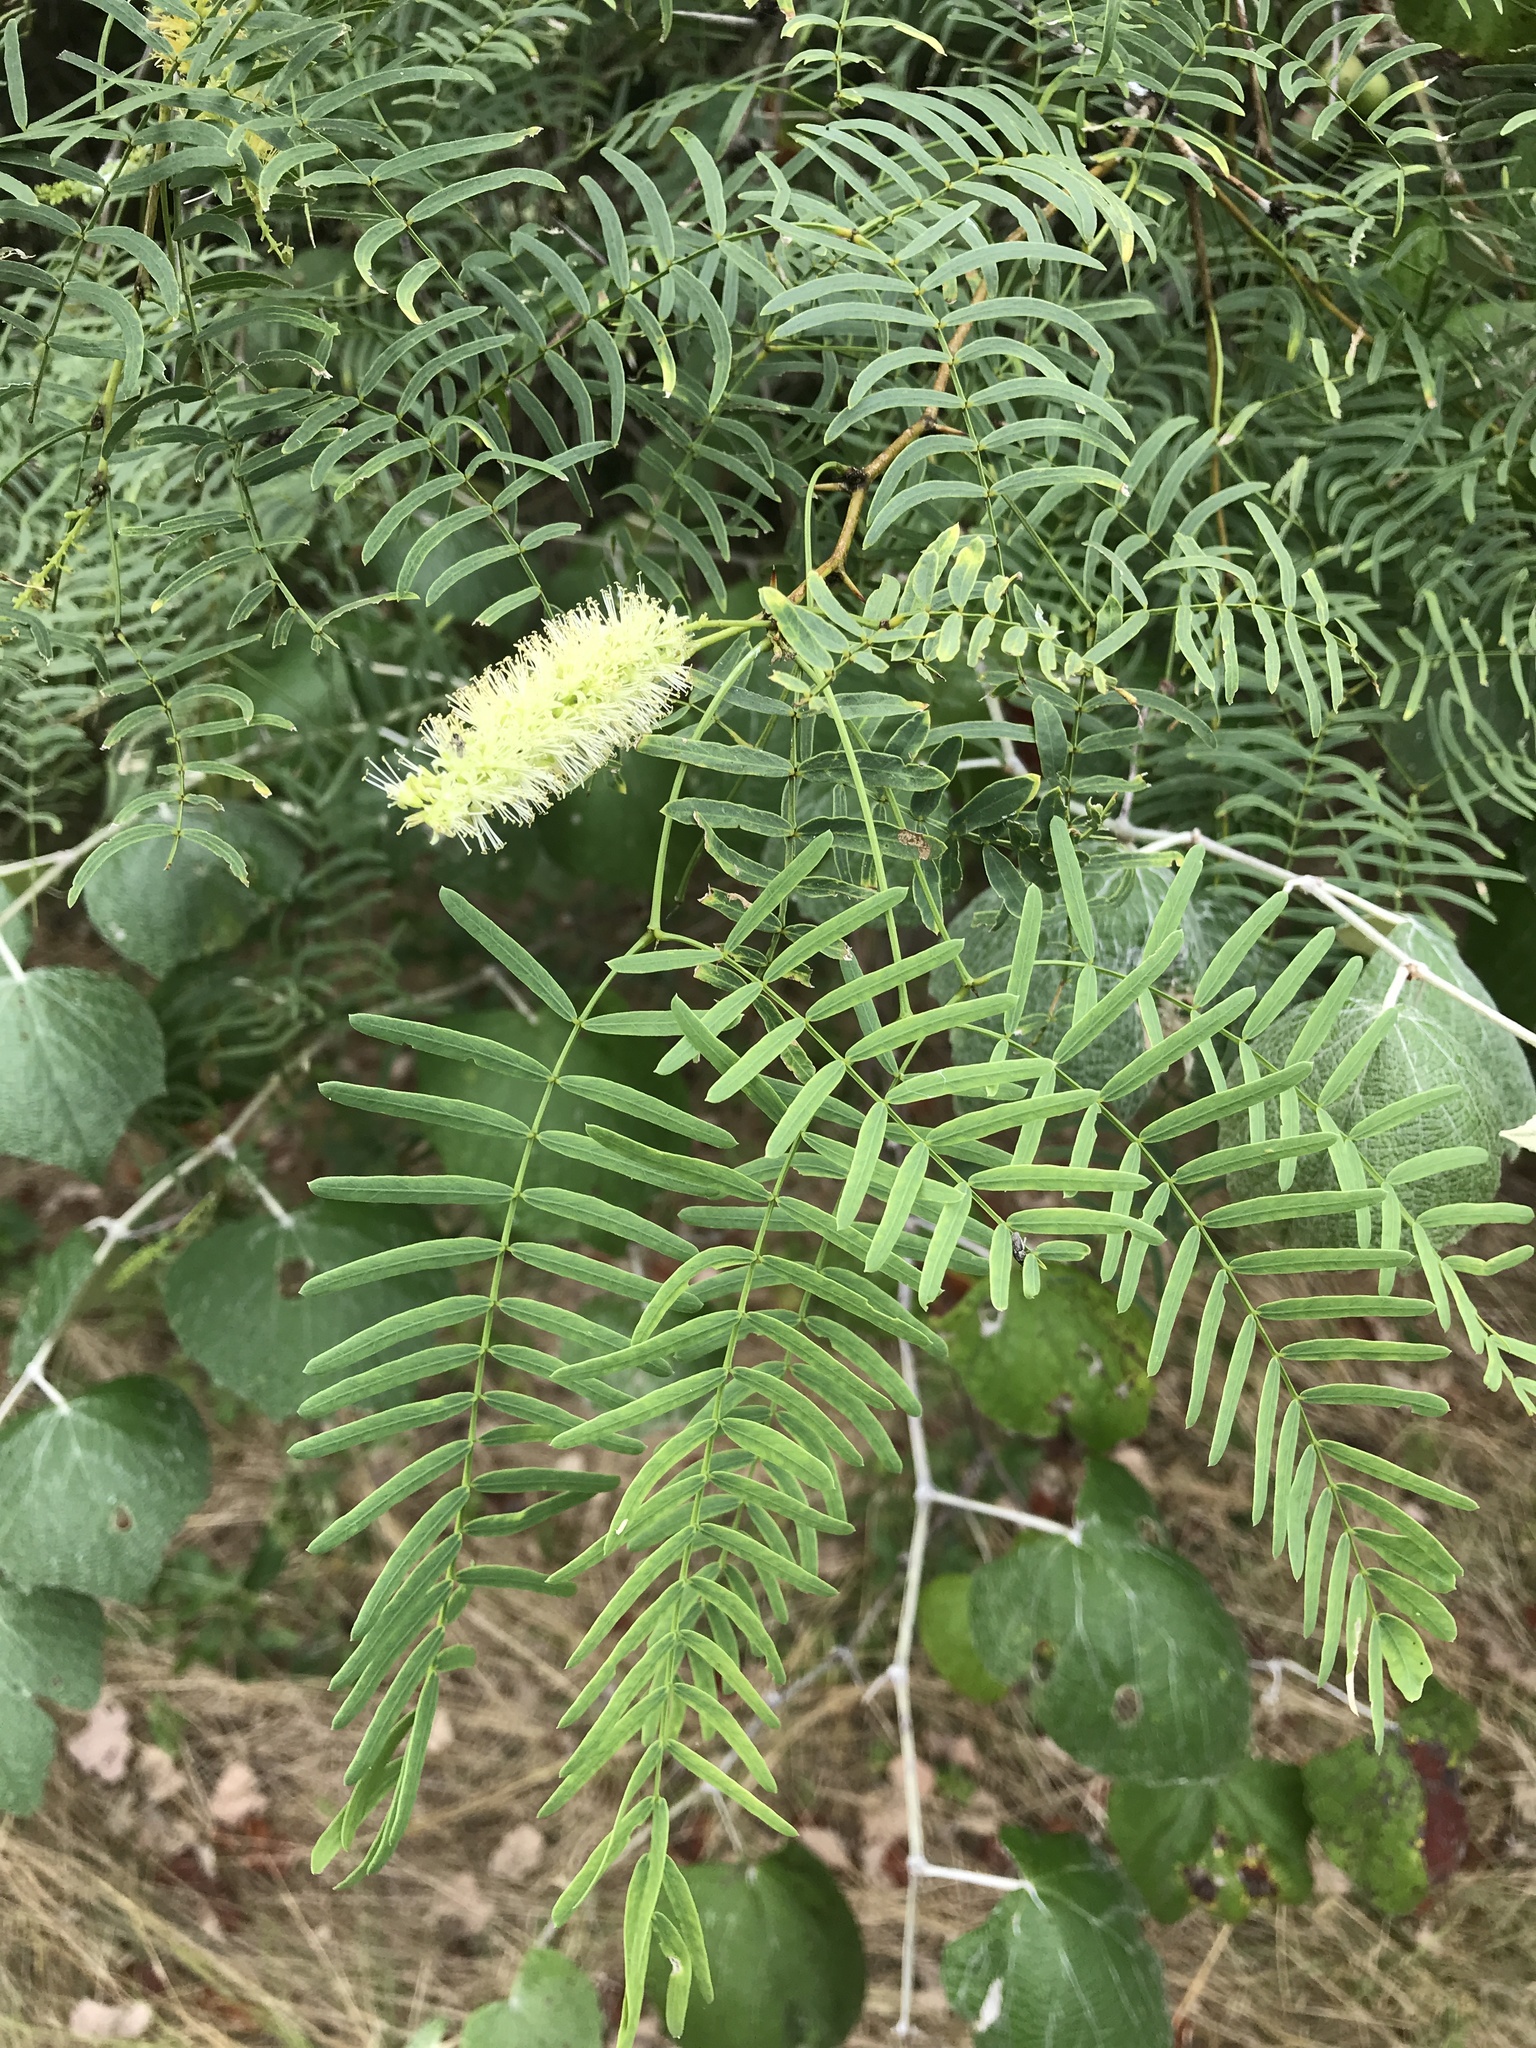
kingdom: Plantae
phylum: Tracheophyta
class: Magnoliopsida
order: Fabales
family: Fabaceae
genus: Prosopis
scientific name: Prosopis glandulosa
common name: Honey mesquite
